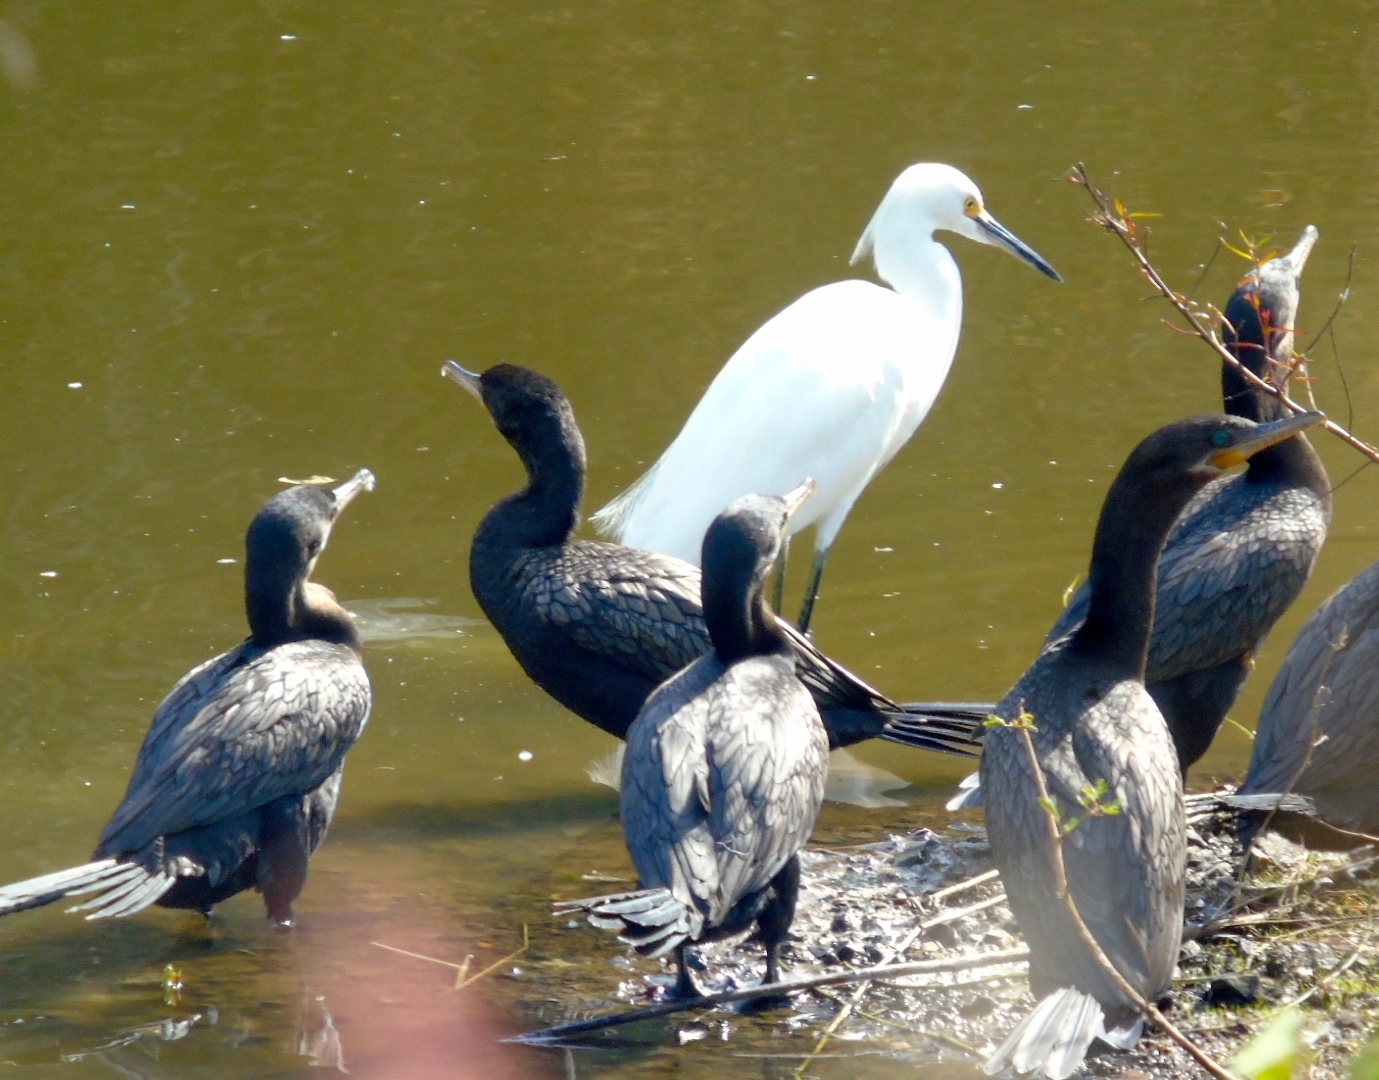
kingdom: Animalia
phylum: Chordata
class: Aves
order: Pelecaniformes
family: Ardeidae
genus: Egretta
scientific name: Egretta thula
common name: Snowy egret
